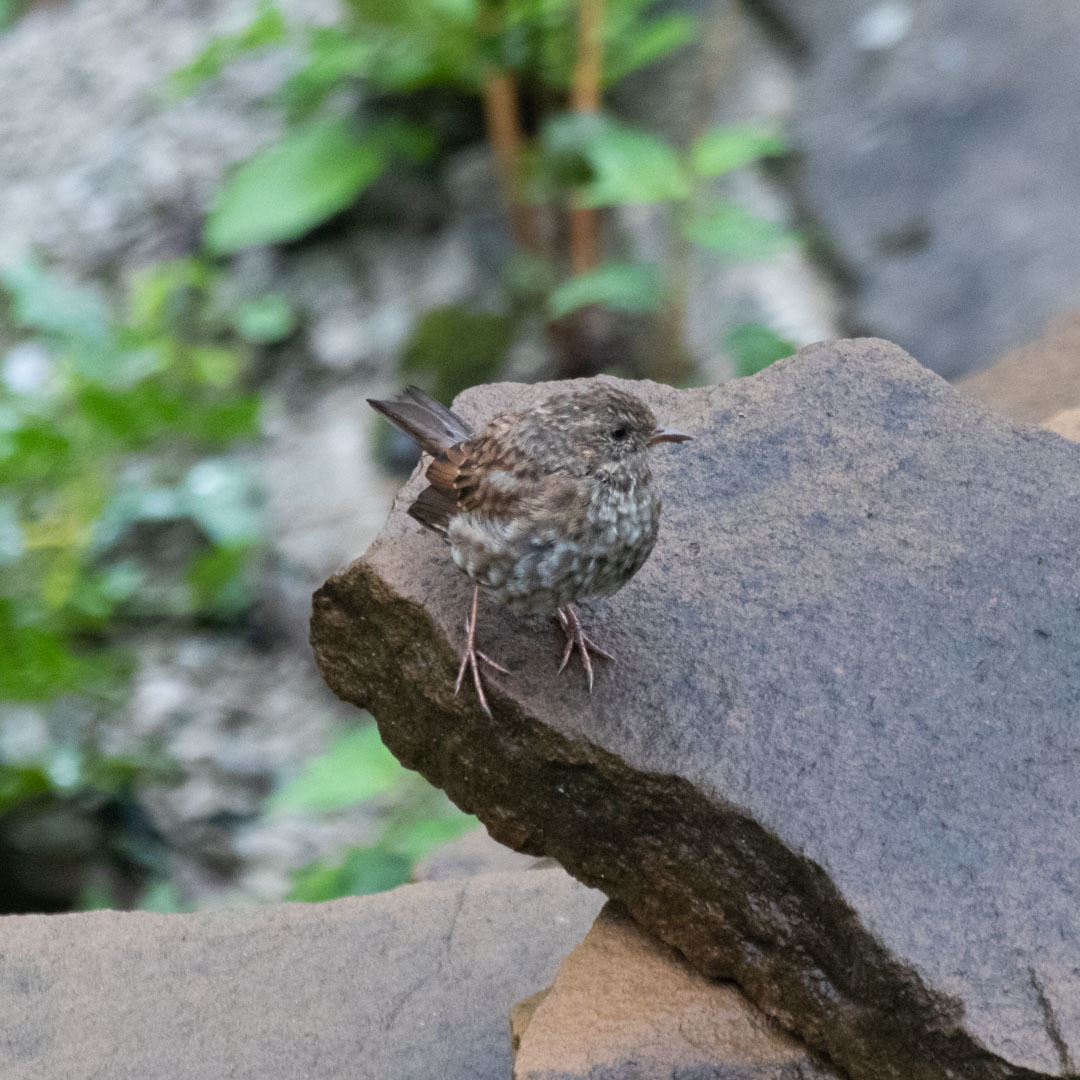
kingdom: Animalia
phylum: Chordata
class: Aves
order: Passeriformes
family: Prunellidae
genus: Prunella
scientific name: Prunella modularis
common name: Dunnock
